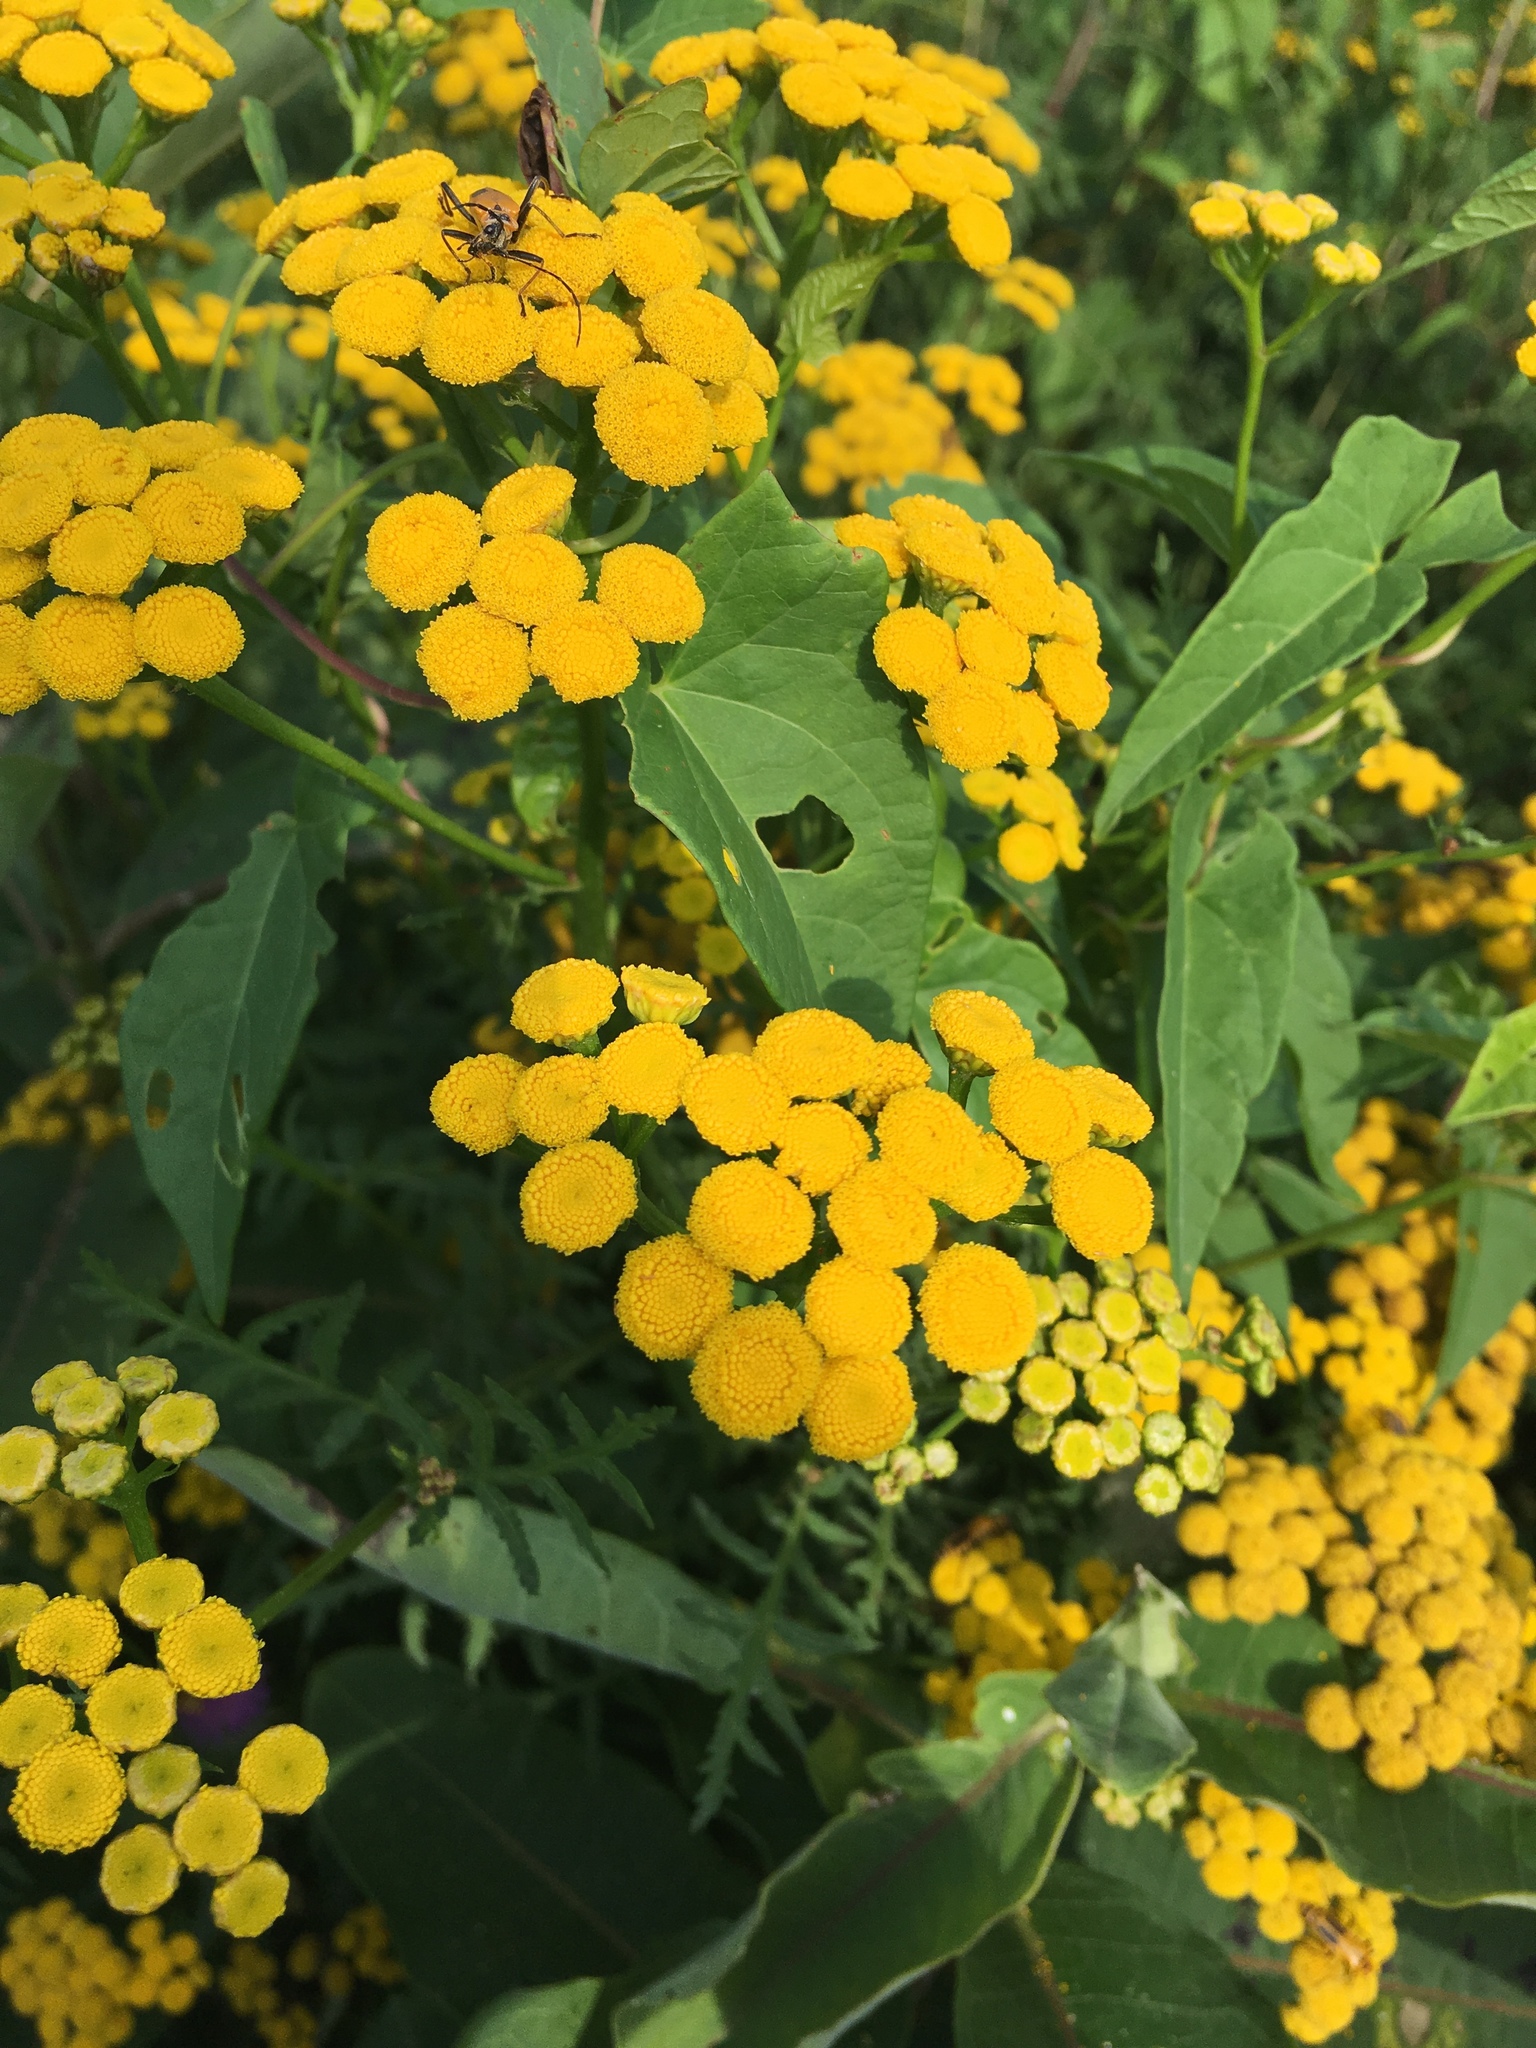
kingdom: Plantae
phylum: Tracheophyta
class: Magnoliopsida
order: Asterales
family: Asteraceae
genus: Tanacetum
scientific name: Tanacetum vulgare
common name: Common tansy
